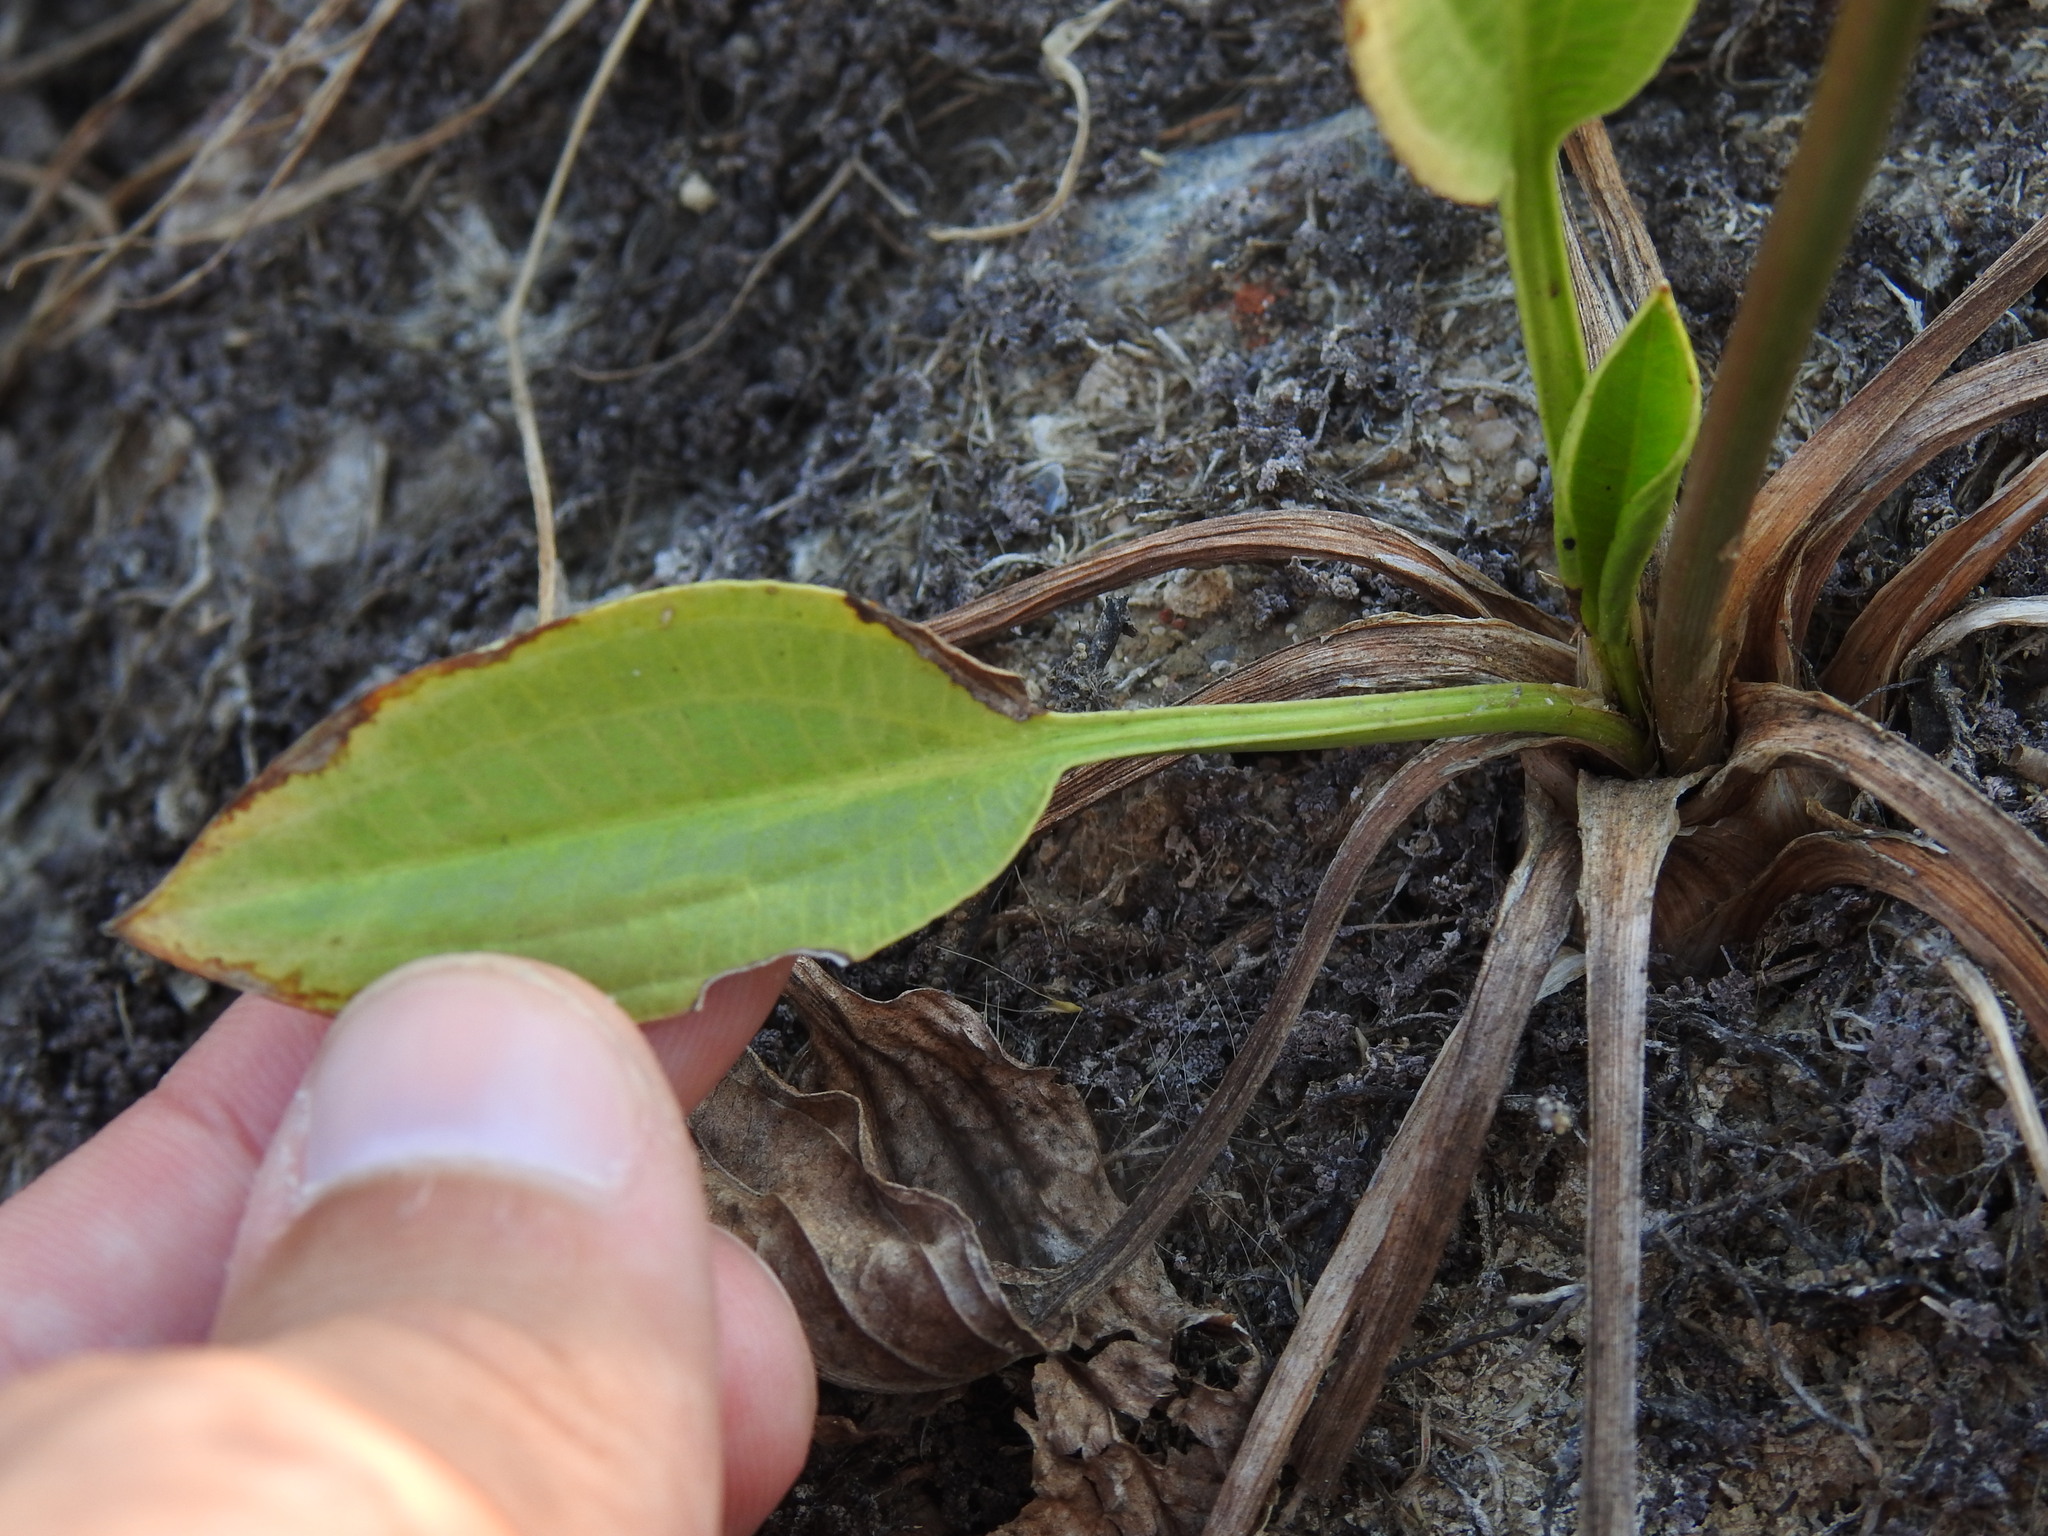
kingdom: Plantae
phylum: Tracheophyta
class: Liliopsida
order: Alismatales
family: Alismataceae
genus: Alisma
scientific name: Alisma lanceolatum
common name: Narrow-leaved water-plantain
